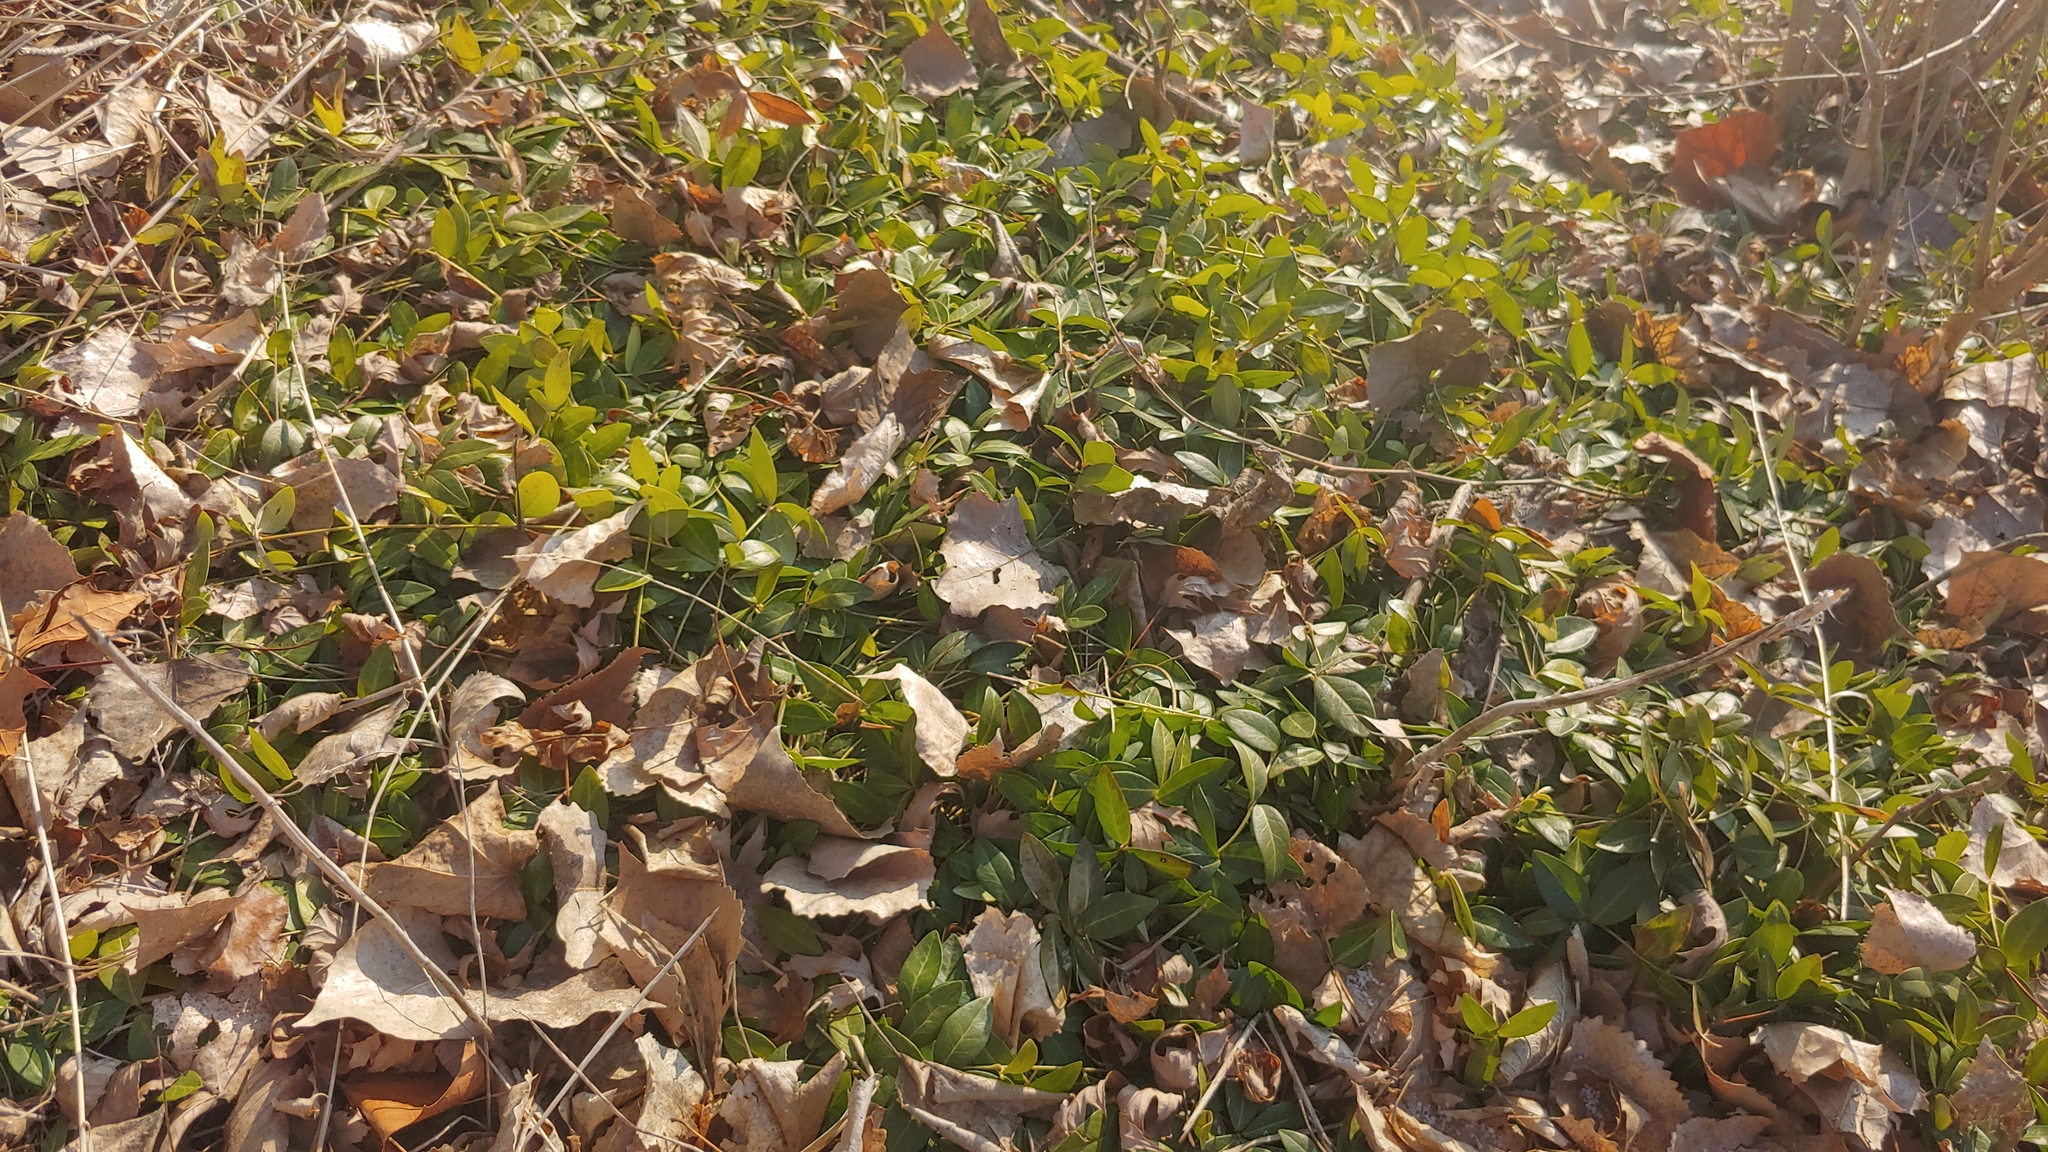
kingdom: Plantae
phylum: Tracheophyta
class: Magnoliopsida
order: Gentianales
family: Apocynaceae
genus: Vinca
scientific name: Vinca minor
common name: Lesser periwinkle
